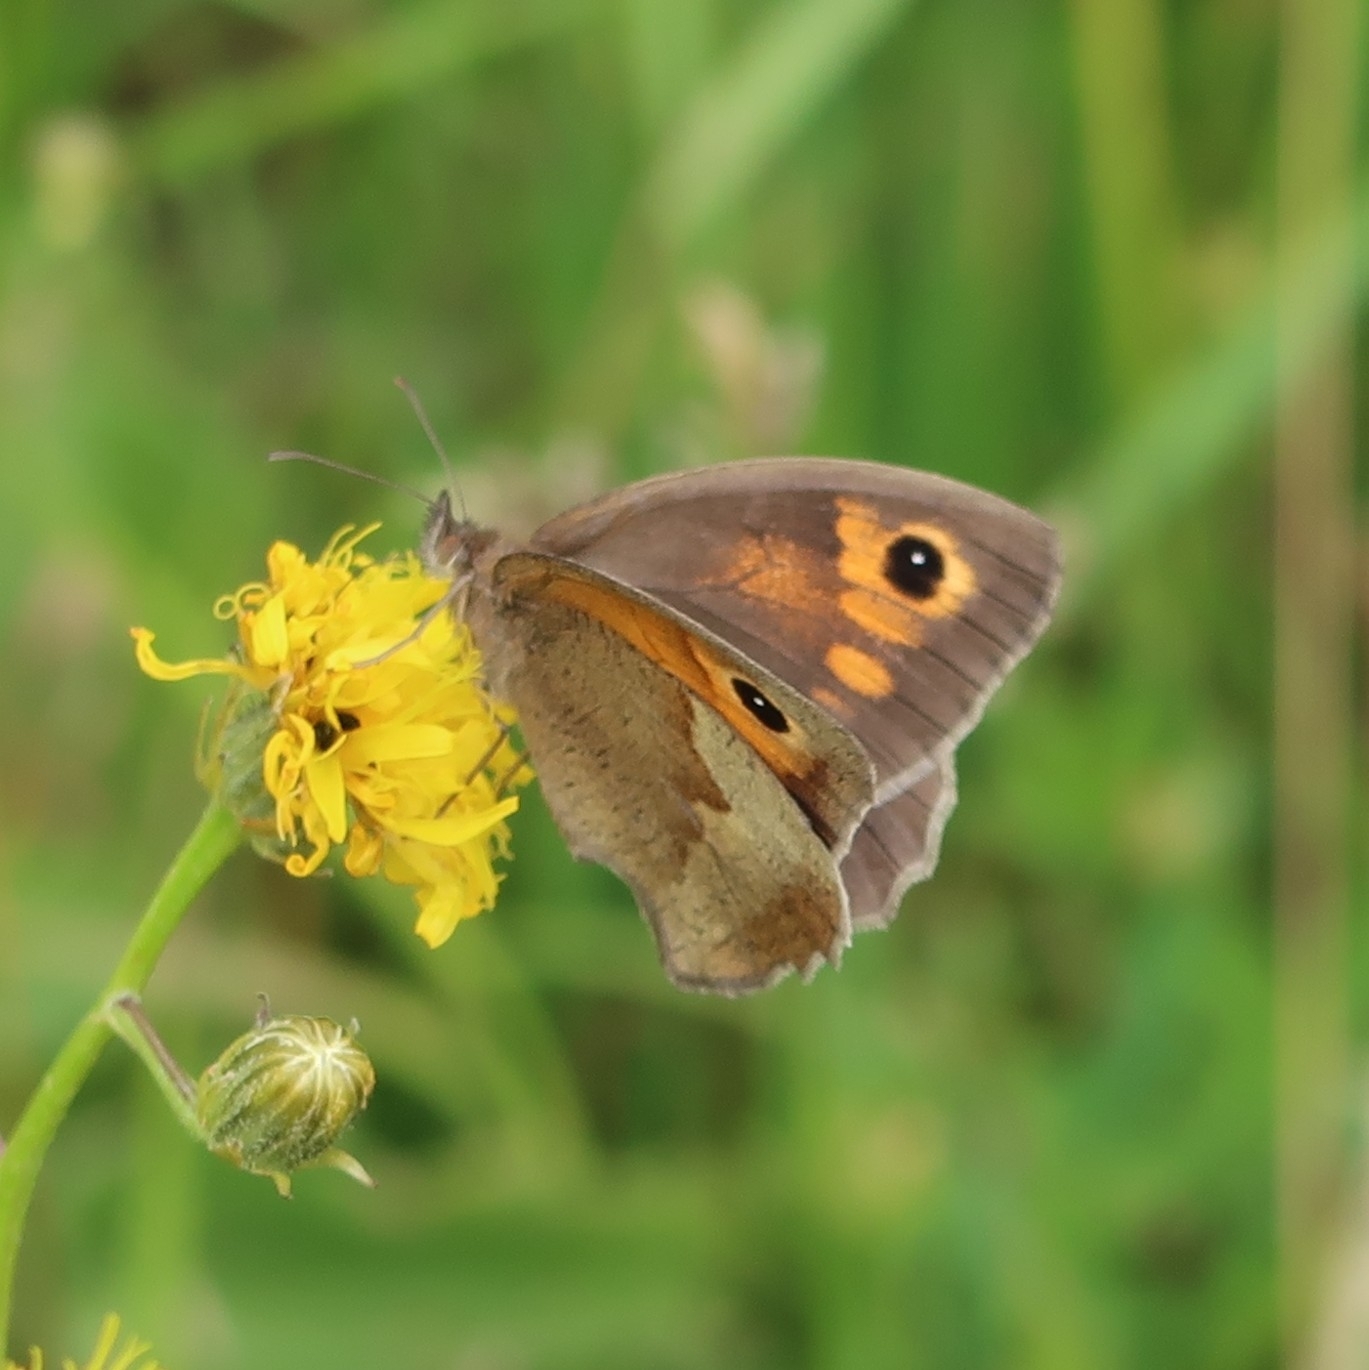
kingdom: Animalia
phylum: Arthropoda
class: Insecta
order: Lepidoptera
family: Nymphalidae
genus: Maniola
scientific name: Maniola jurtina
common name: Meadow brown
